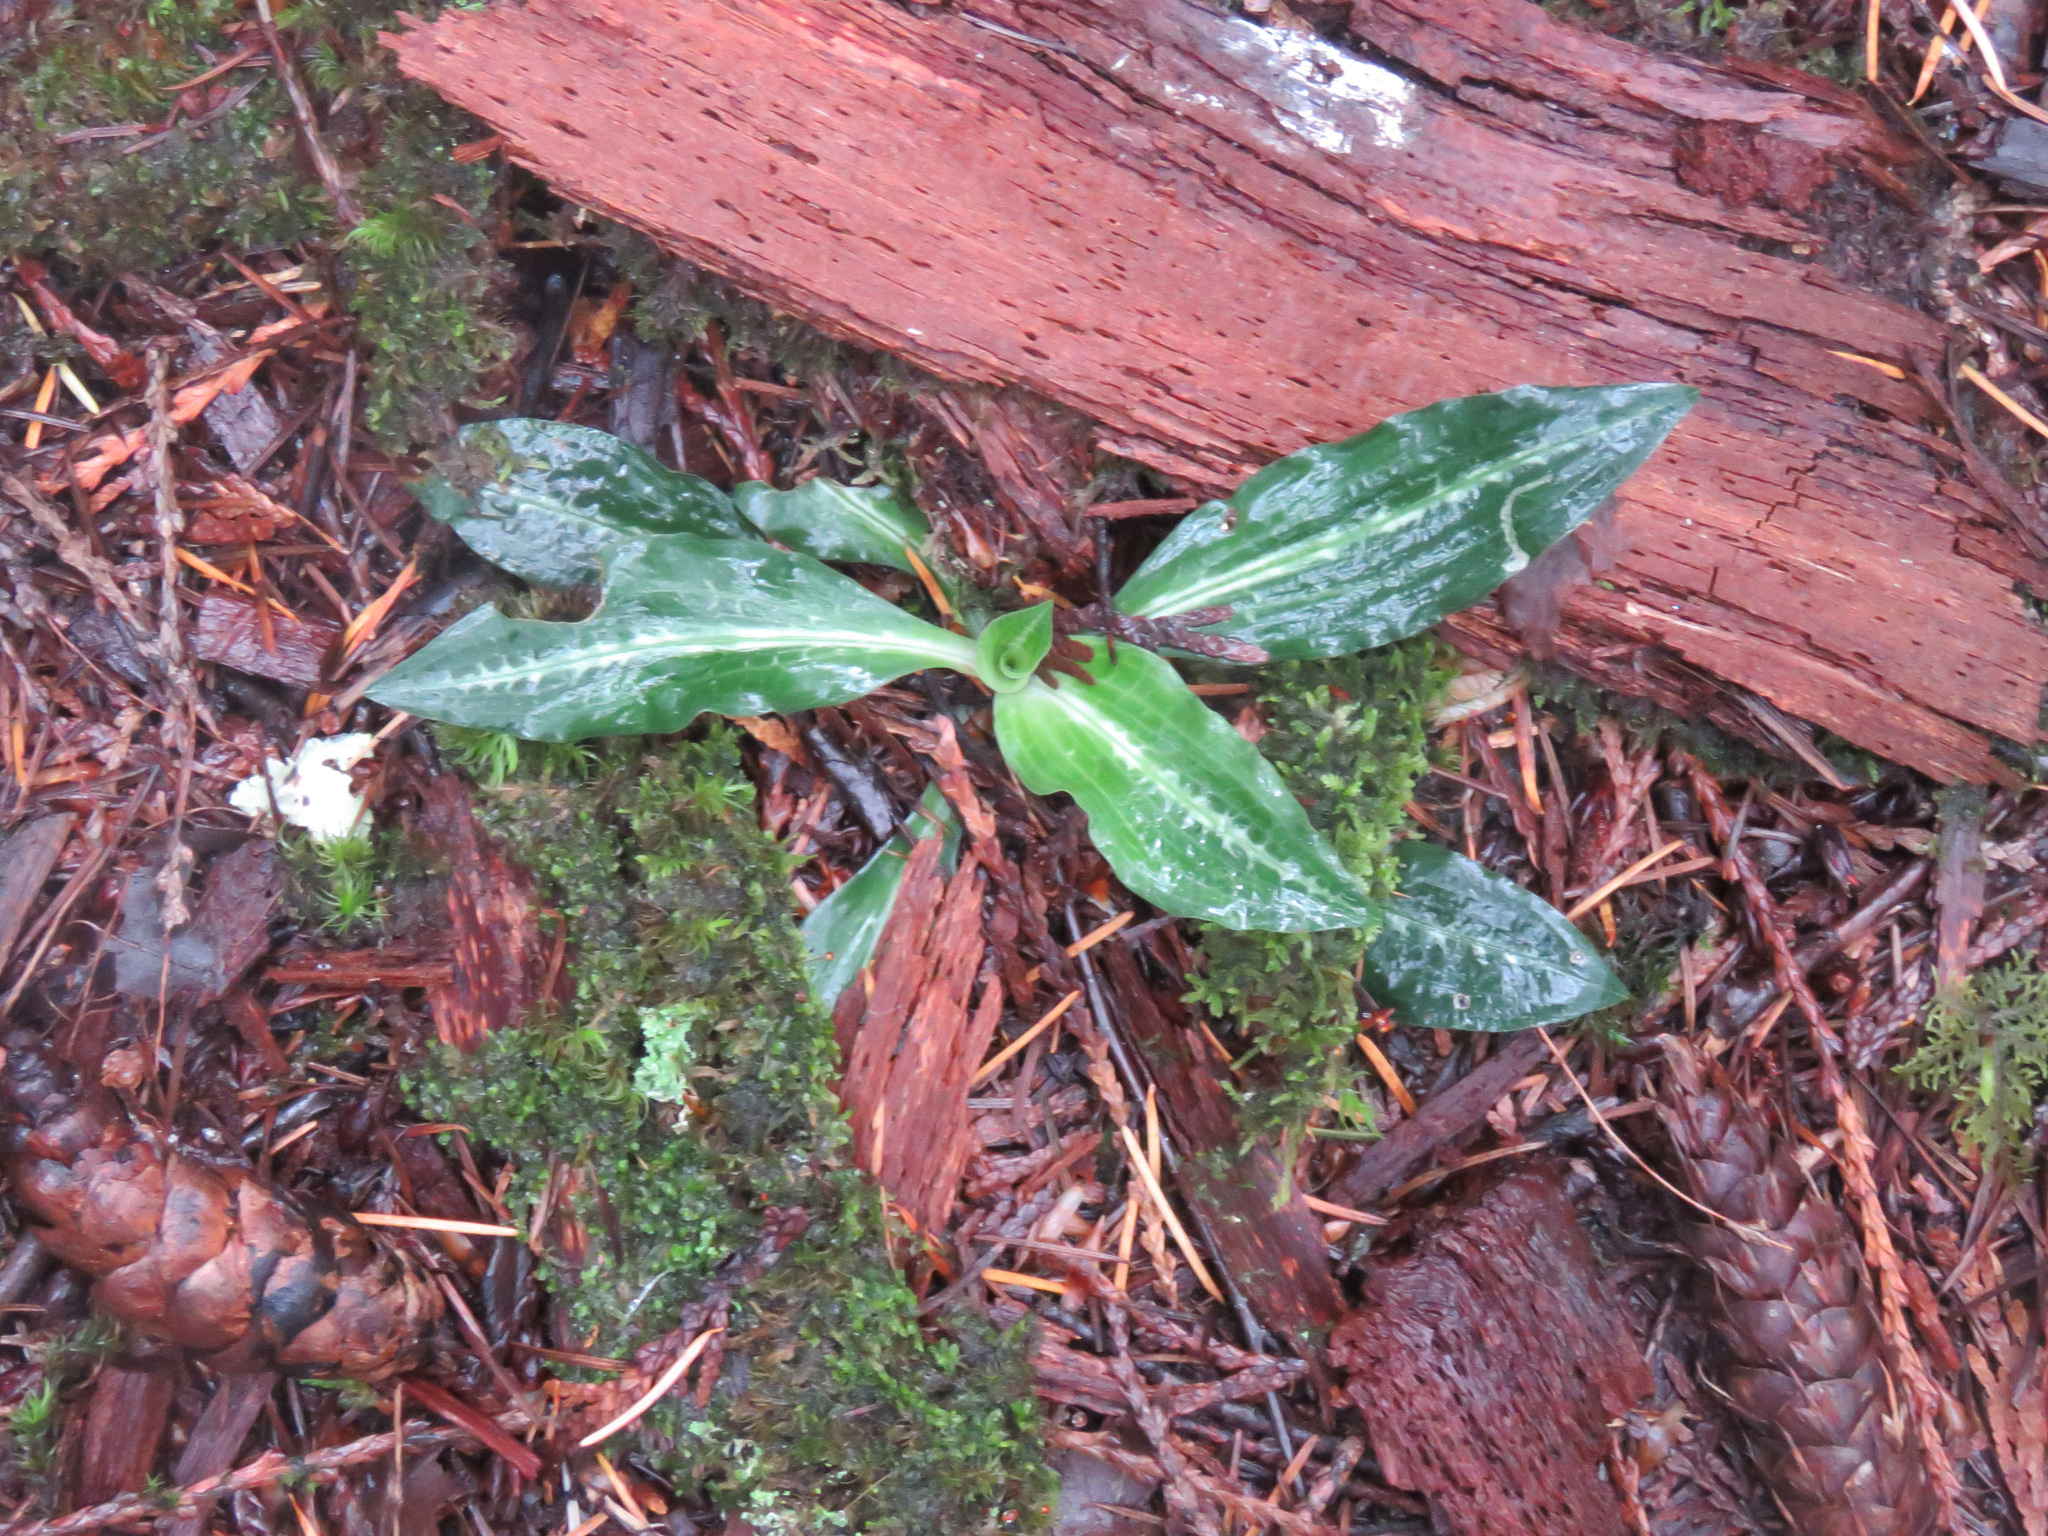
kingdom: Plantae
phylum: Tracheophyta
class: Liliopsida
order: Asparagales
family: Orchidaceae
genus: Goodyera
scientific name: Goodyera oblongifolia
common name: Giant rattlesnake-plantain
